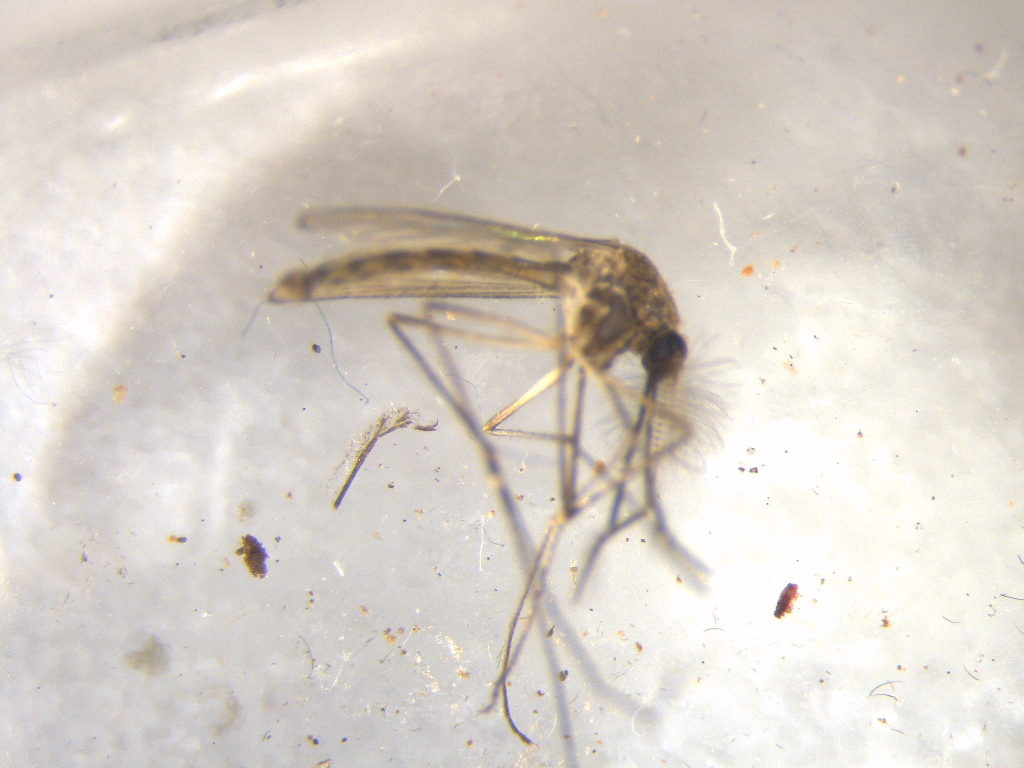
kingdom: Animalia
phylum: Arthropoda
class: Insecta
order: Diptera
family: Culicidae
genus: Culex
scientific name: Culex pervigilans
